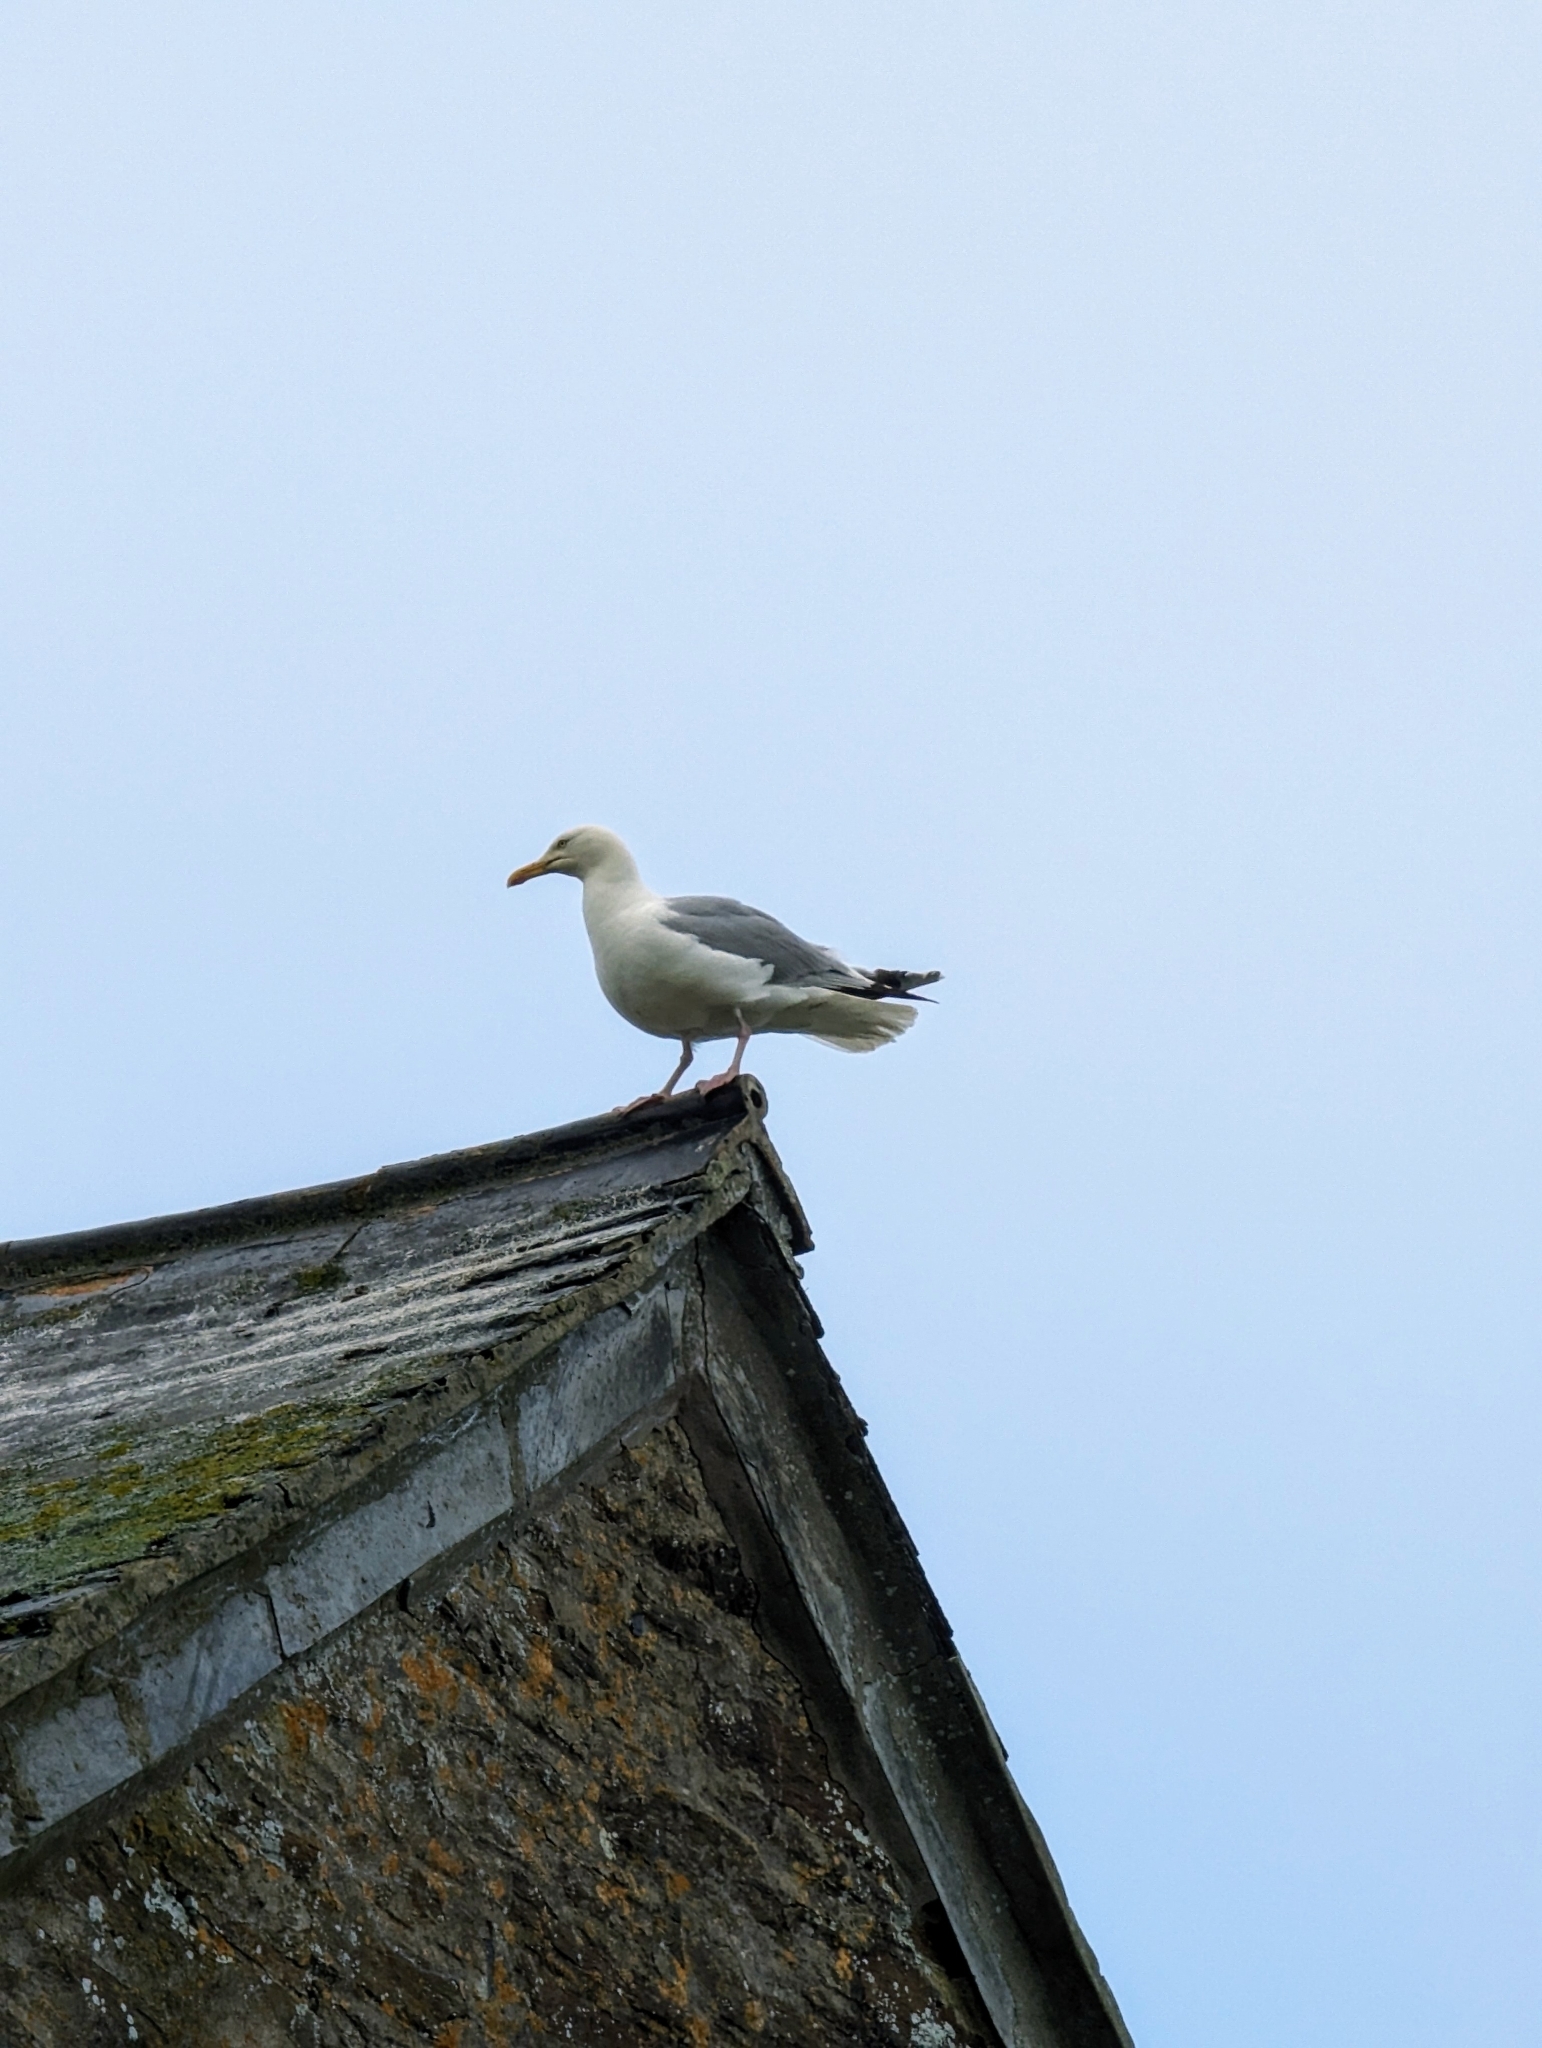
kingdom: Animalia
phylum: Chordata
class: Aves
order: Charadriiformes
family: Laridae
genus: Larus
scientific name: Larus argentatus
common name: Herring gull
